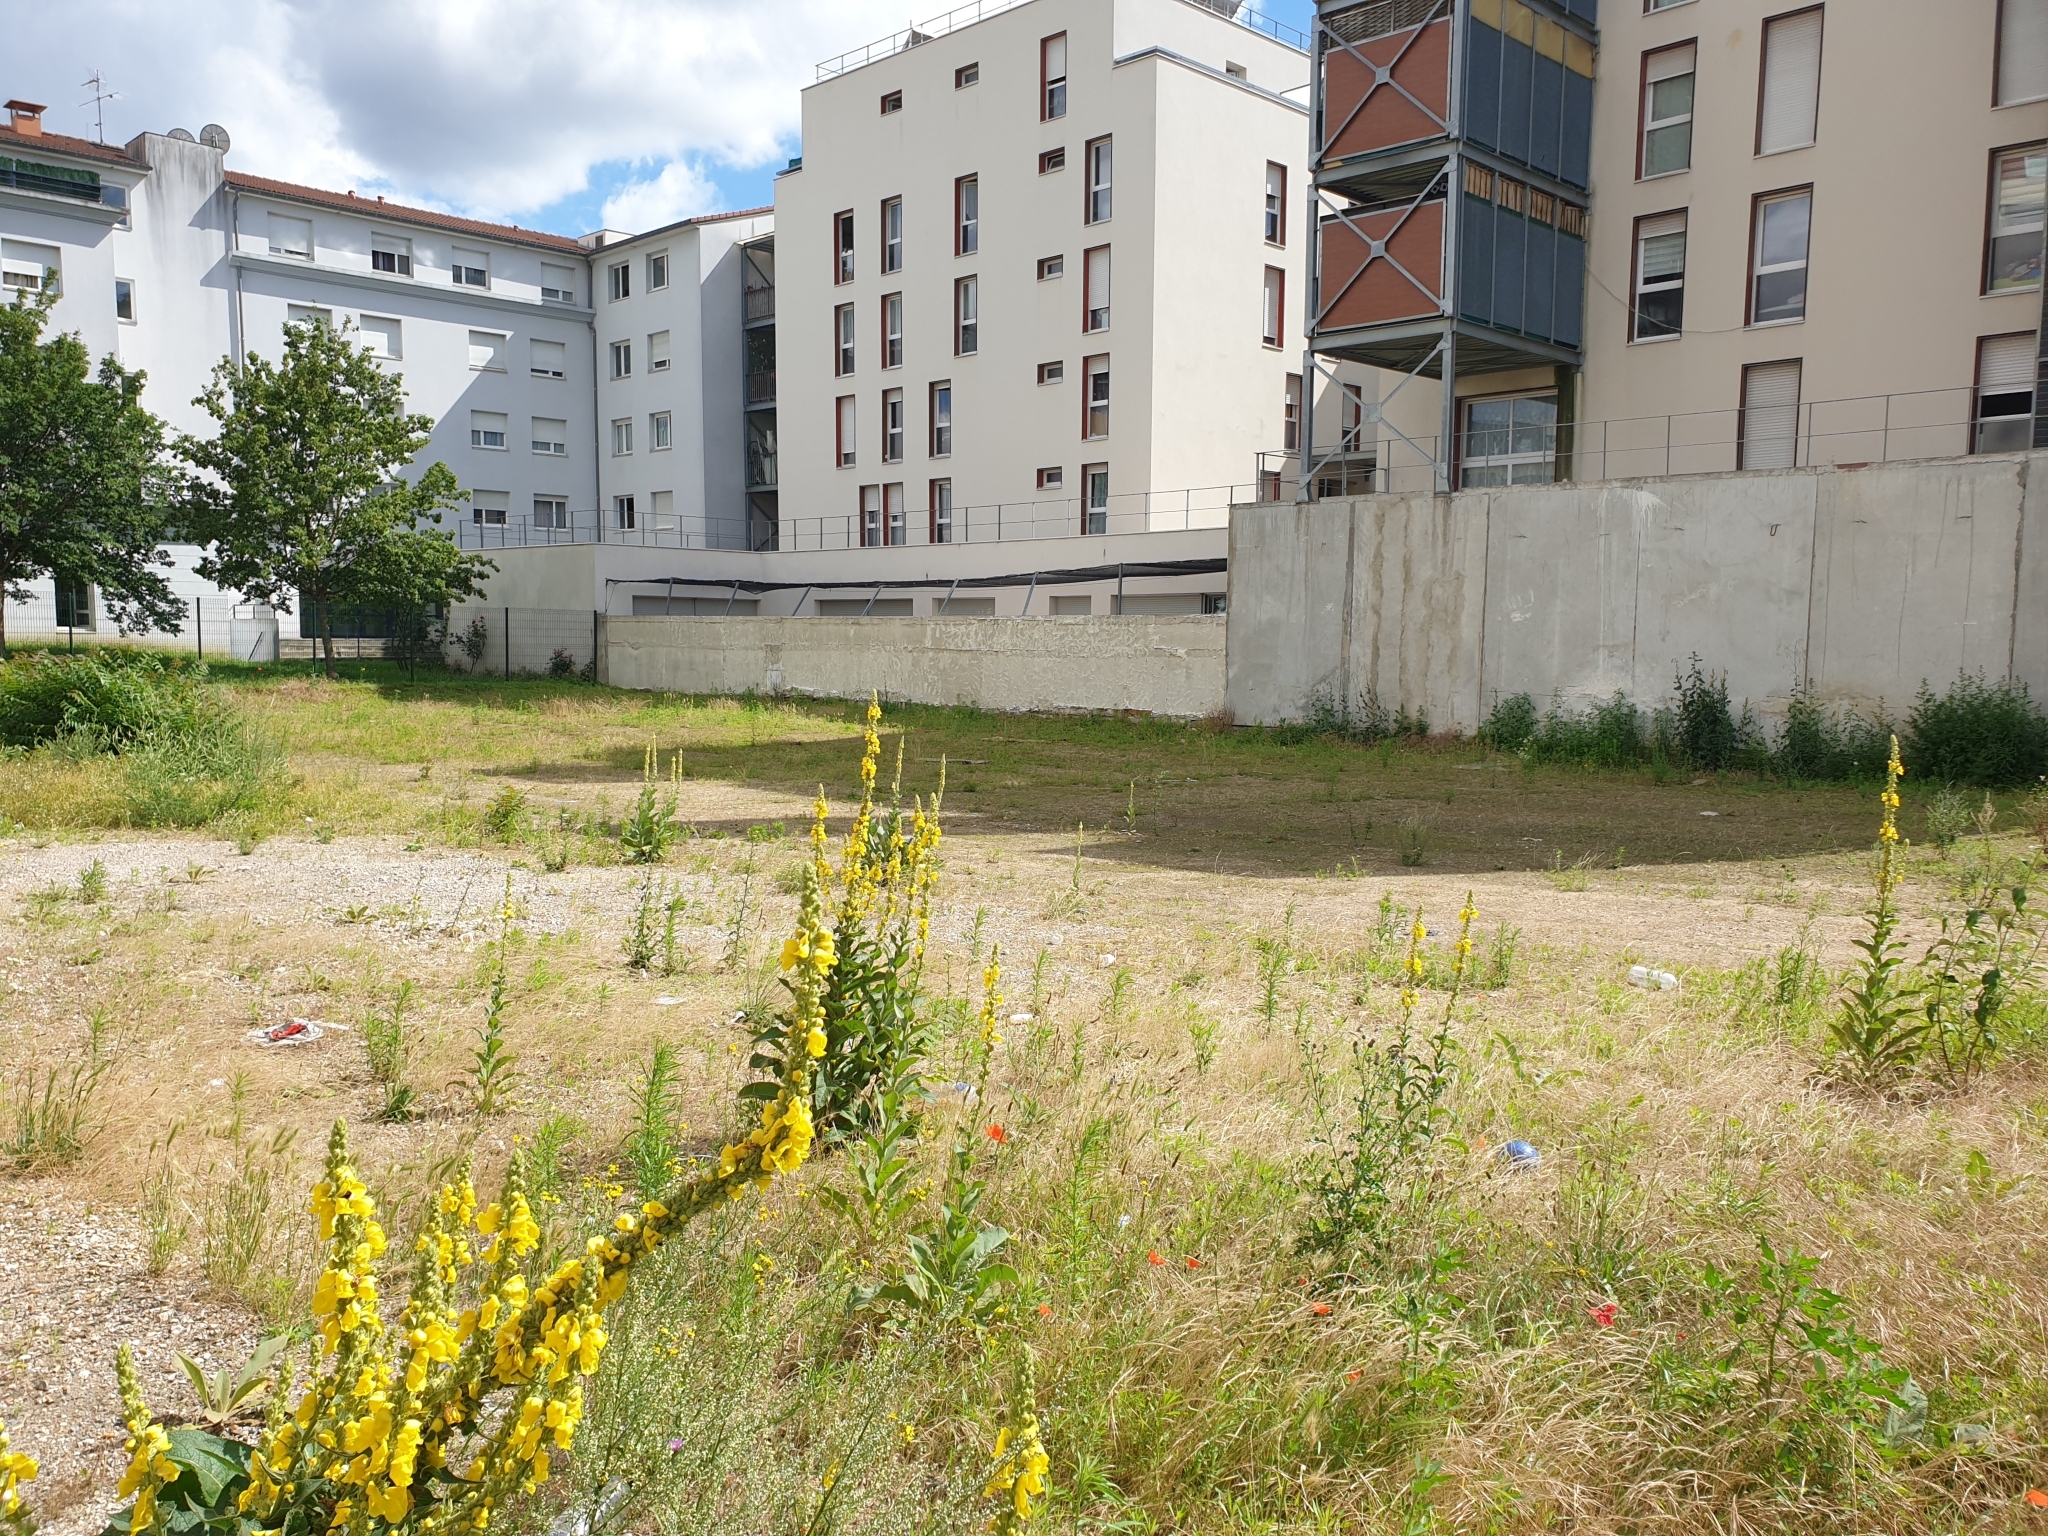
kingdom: Plantae
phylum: Tracheophyta
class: Magnoliopsida
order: Lamiales
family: Scrophulariaceae
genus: Verbascum
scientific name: Verbascum densiflorum
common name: Dense-flowered mullein
